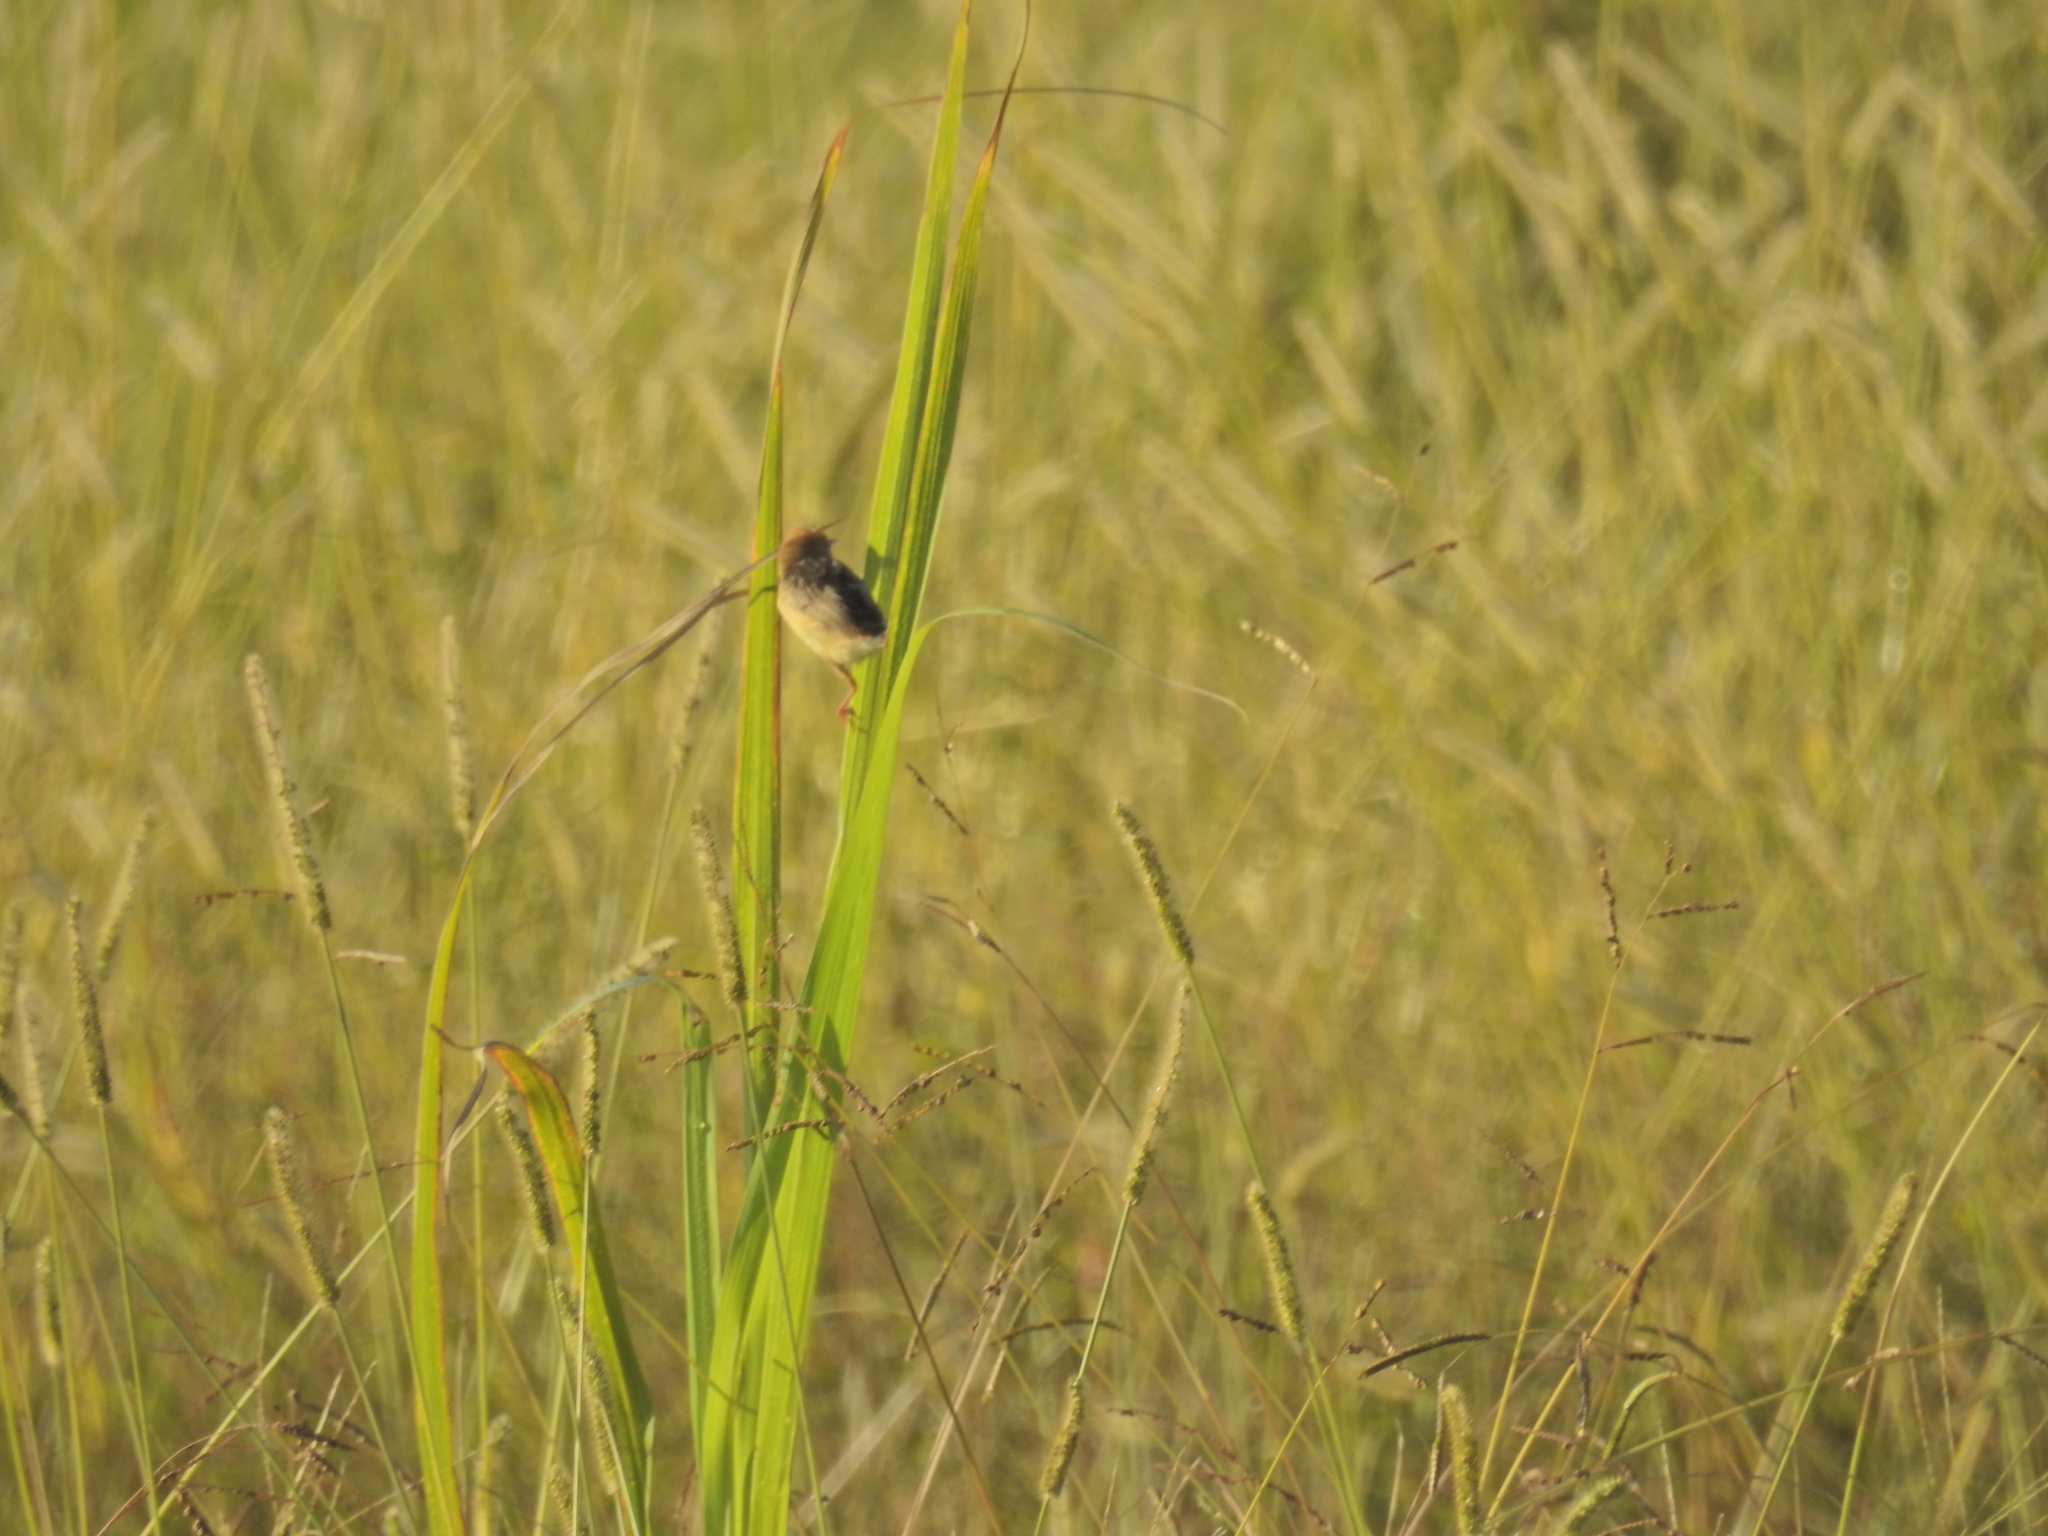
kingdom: Animalia
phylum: Chordata
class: Aves
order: Passeriformes
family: Cisticolidae
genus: Cisticola
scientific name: Cisticola exilis
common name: Golden-headed cisticola
